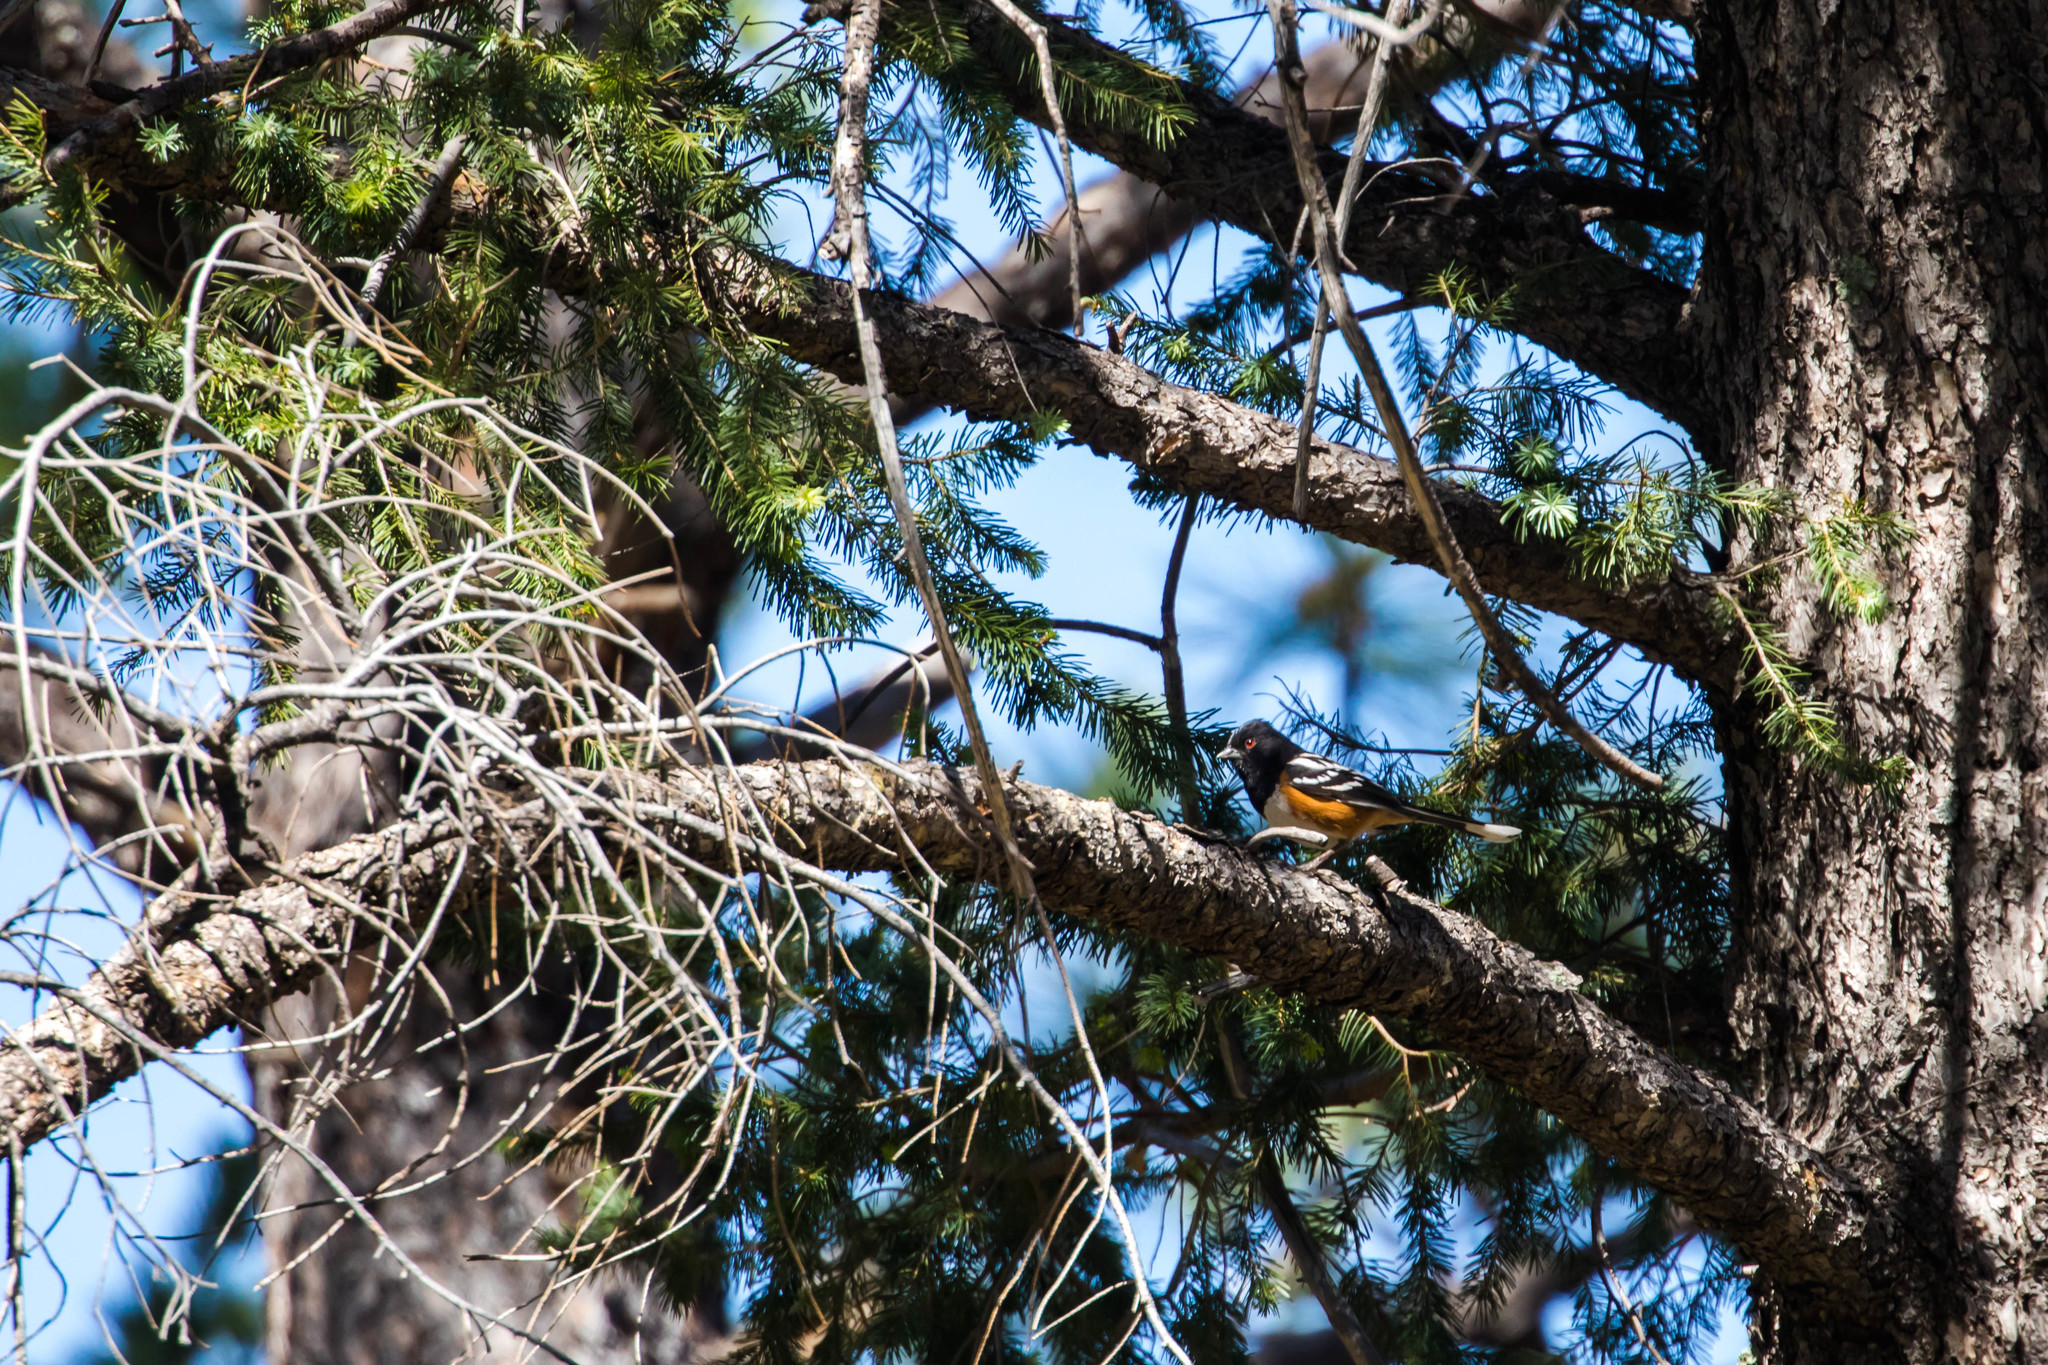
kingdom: Animalia
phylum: Chordata
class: Aves
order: Passeriformes
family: Passerellidae
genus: Pipilo
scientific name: Pipilo maculatus
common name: Spotted towhee
